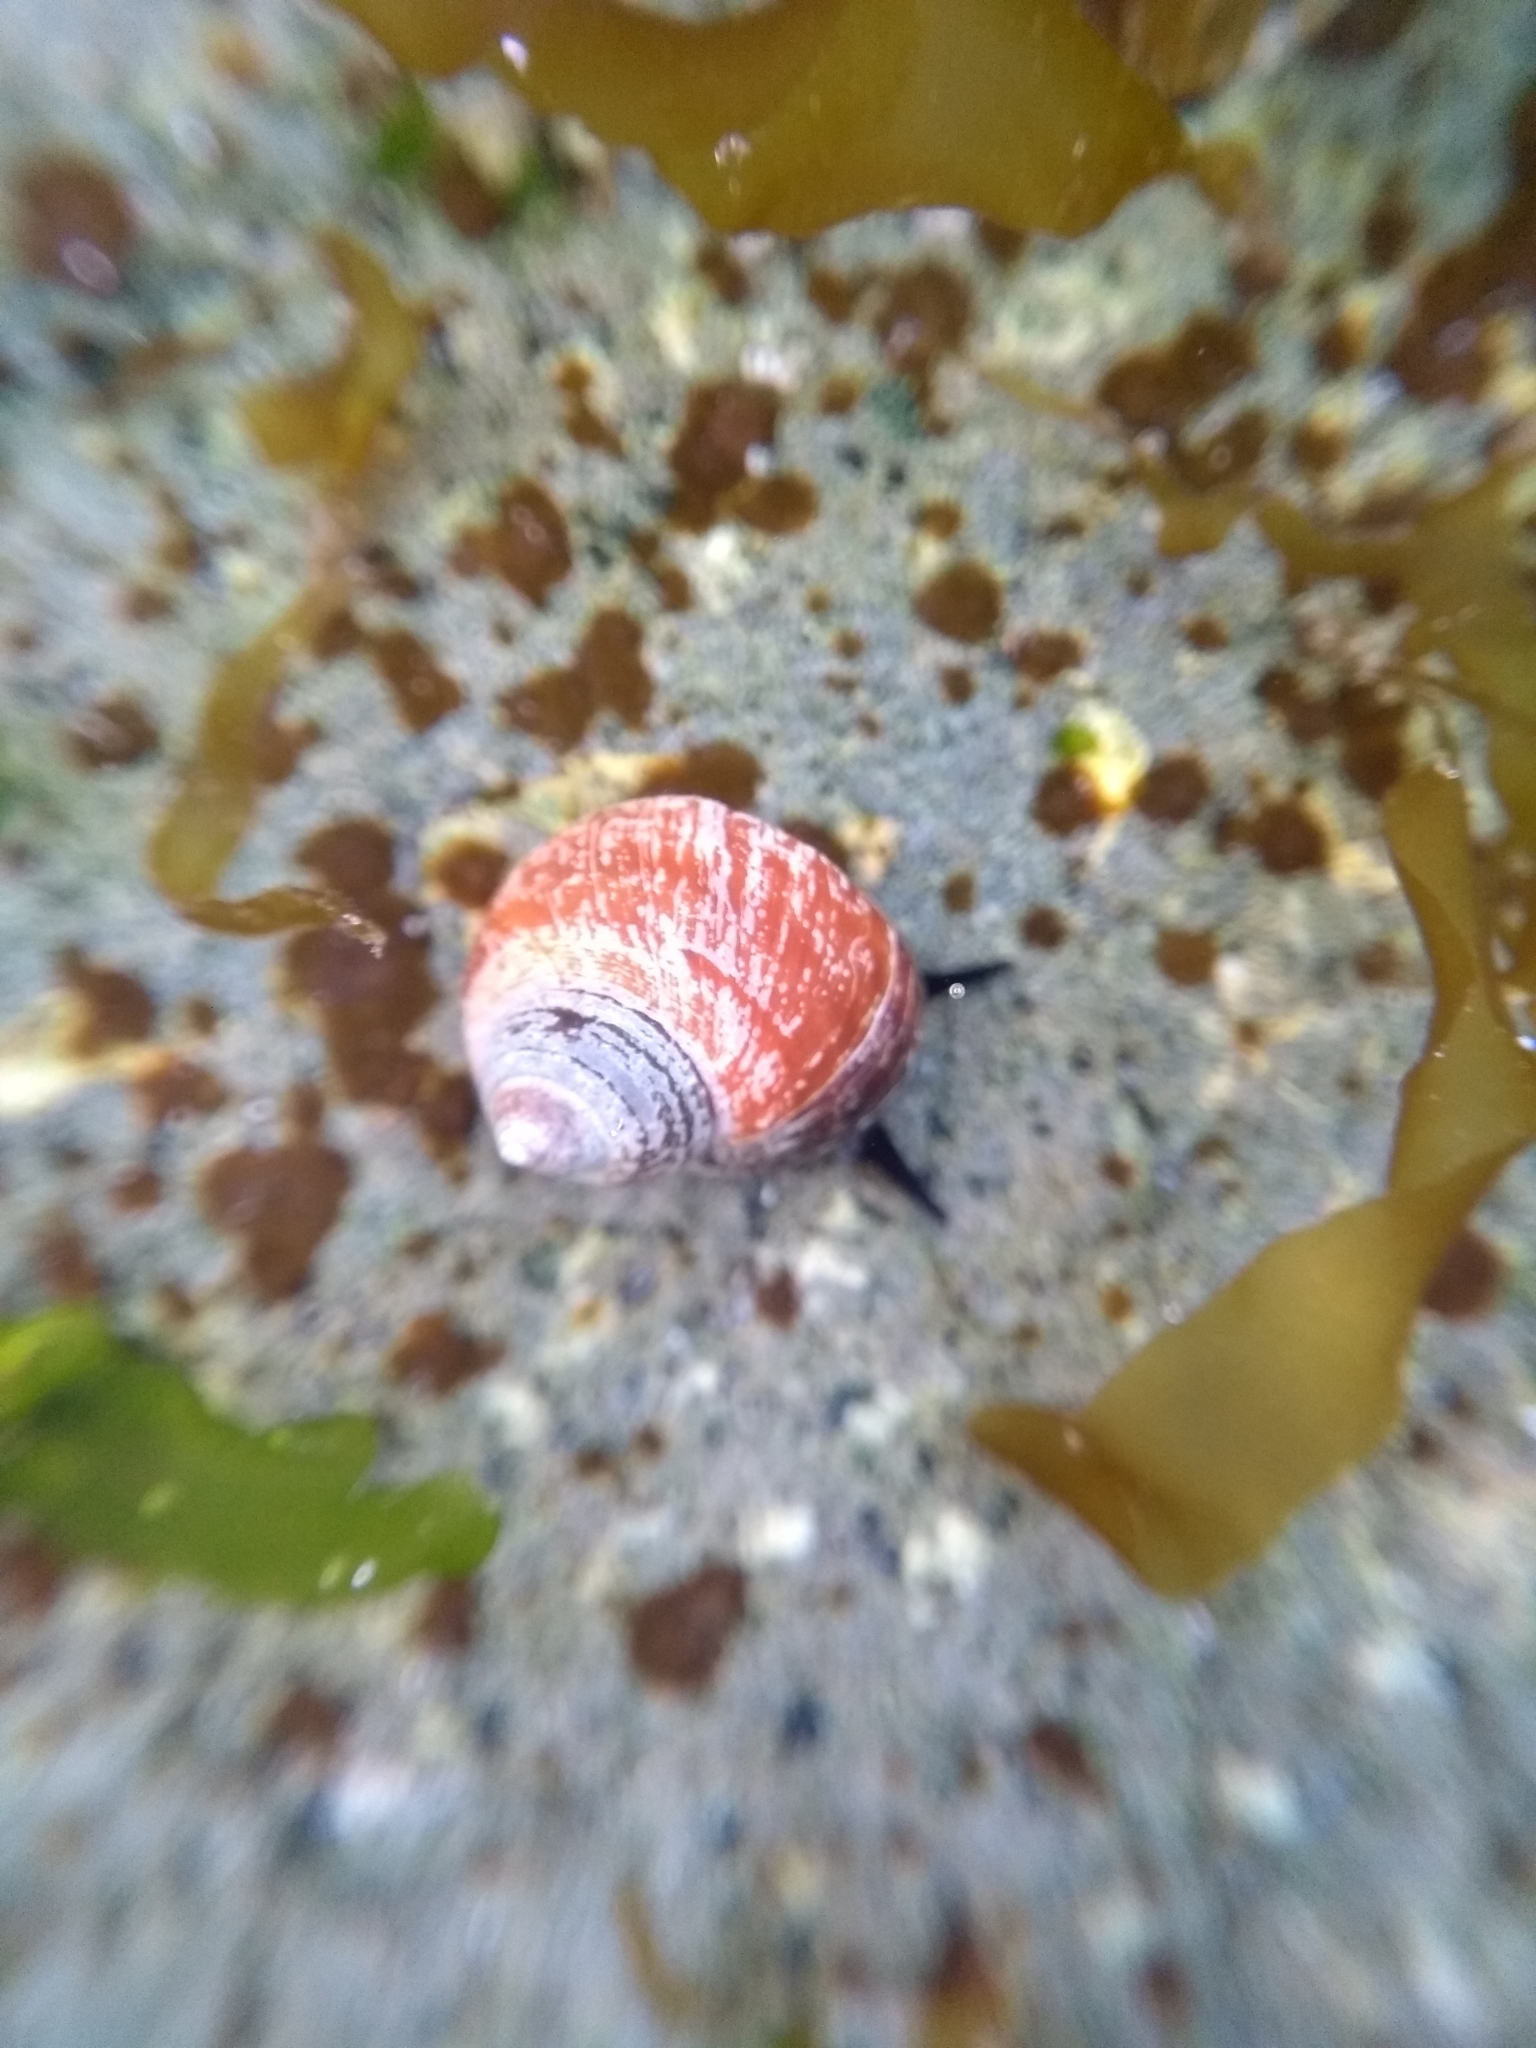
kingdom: Animalia
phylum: Mollusca
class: Gastropoda
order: Littorinimorpha
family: Littorinidae
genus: Littorina
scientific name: Littorina sitkana
